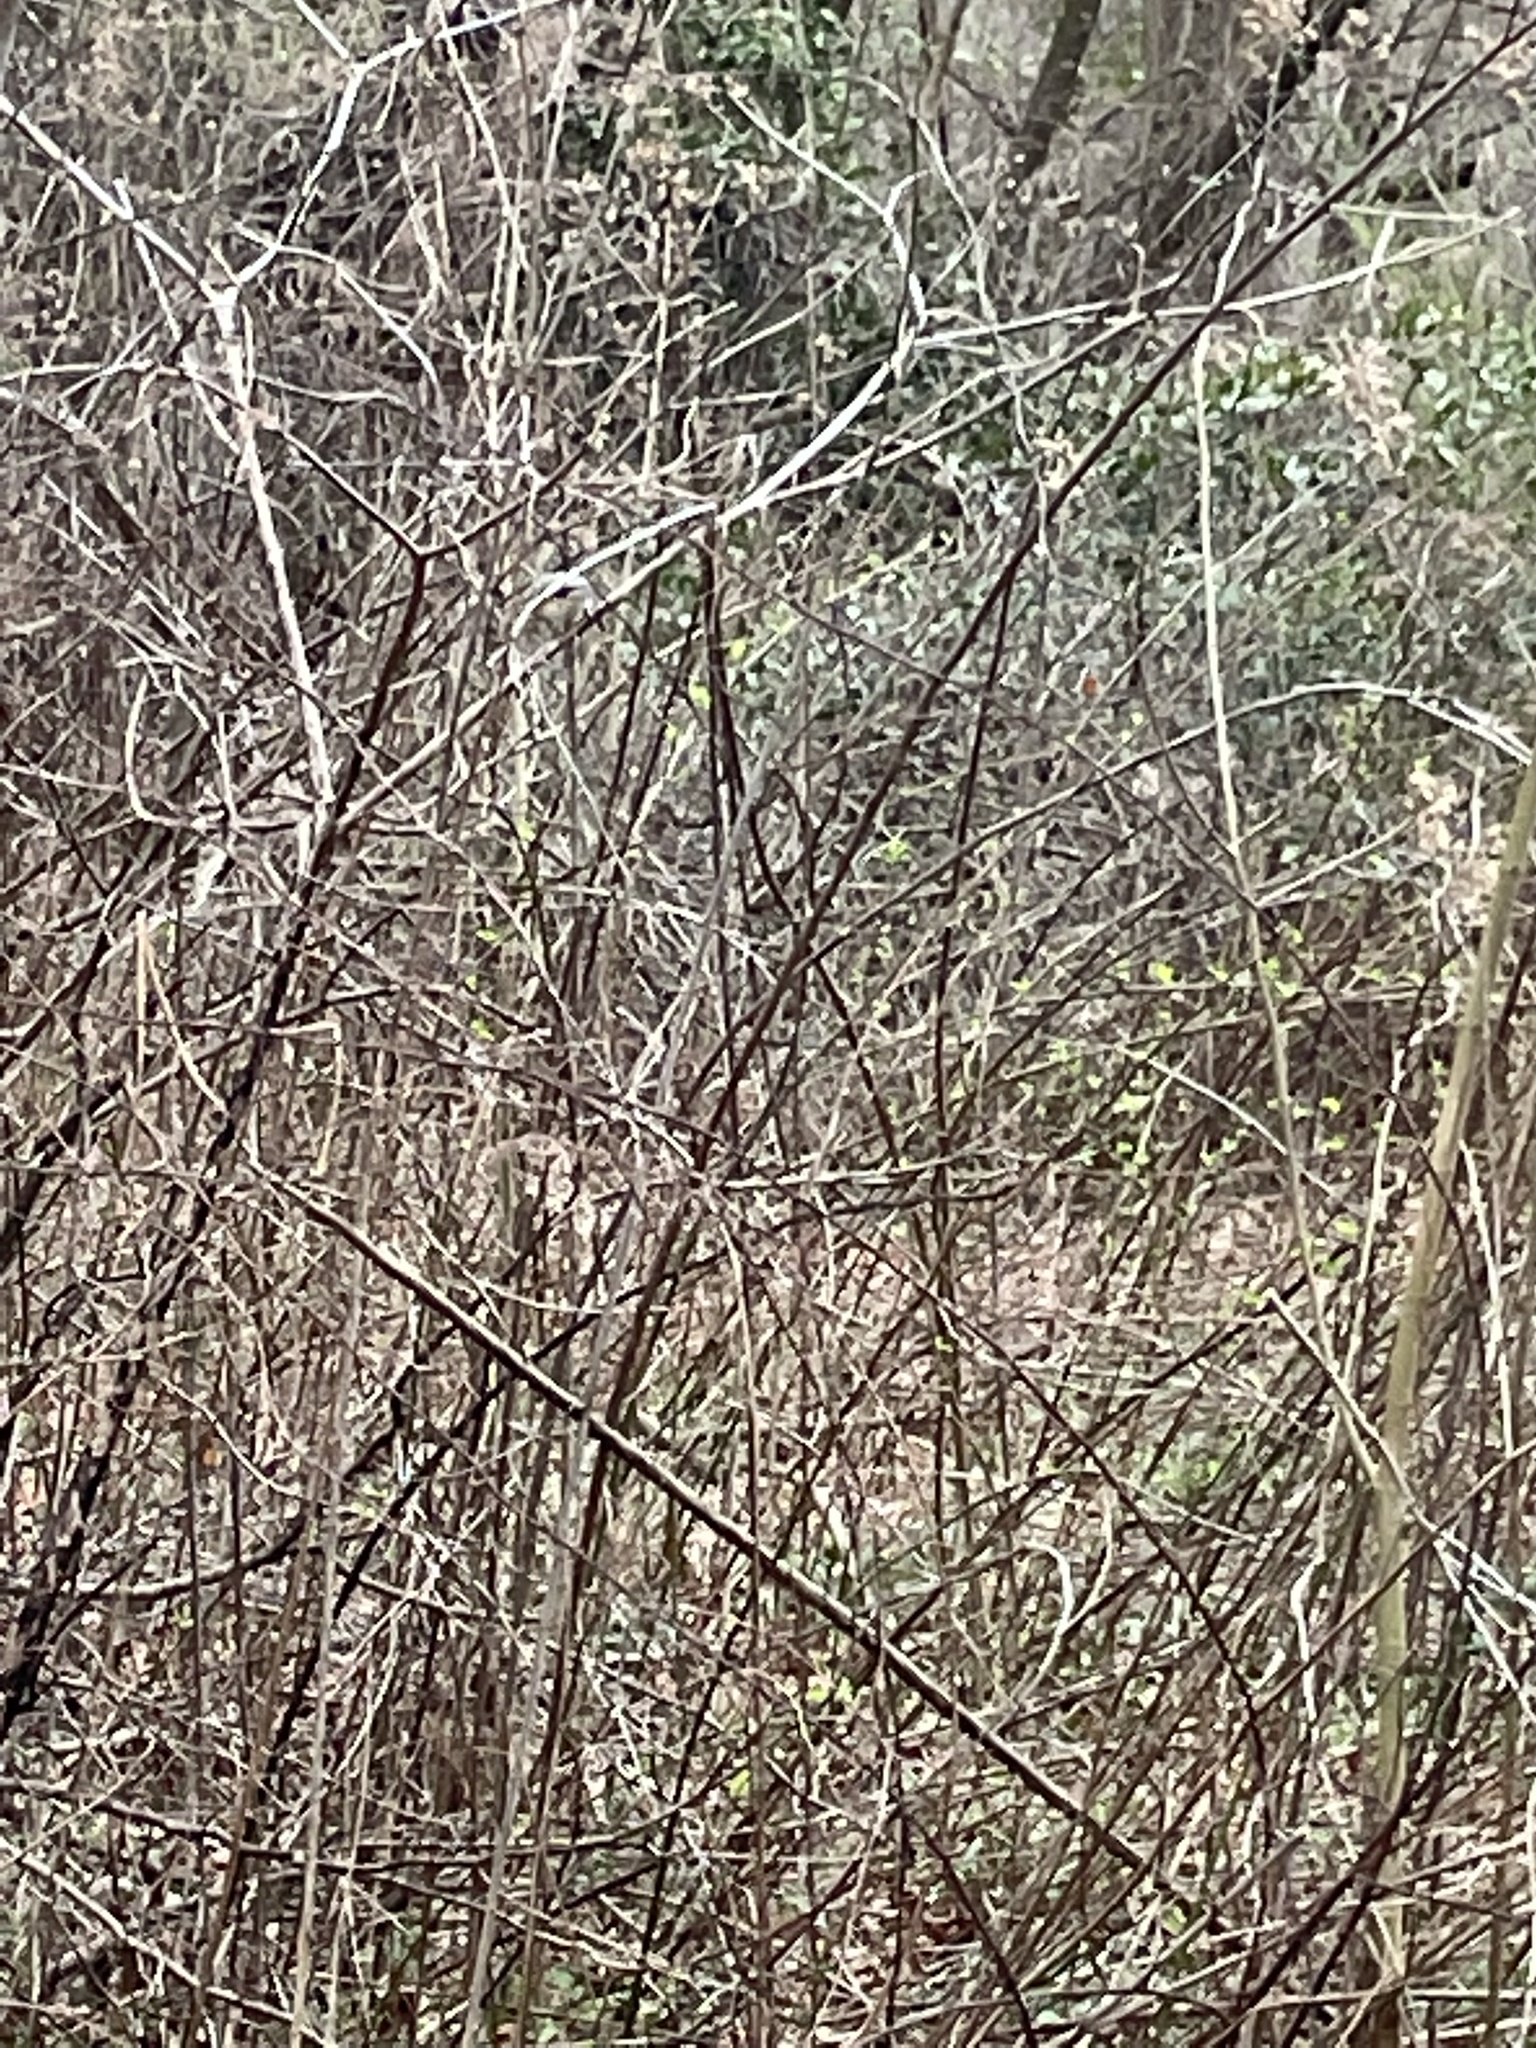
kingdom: Animalia
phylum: Chordata
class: Aves
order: Passeriformes
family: Paridae
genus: Baeolophus
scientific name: Baeolophus bicolor
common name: Tufted titmouse
